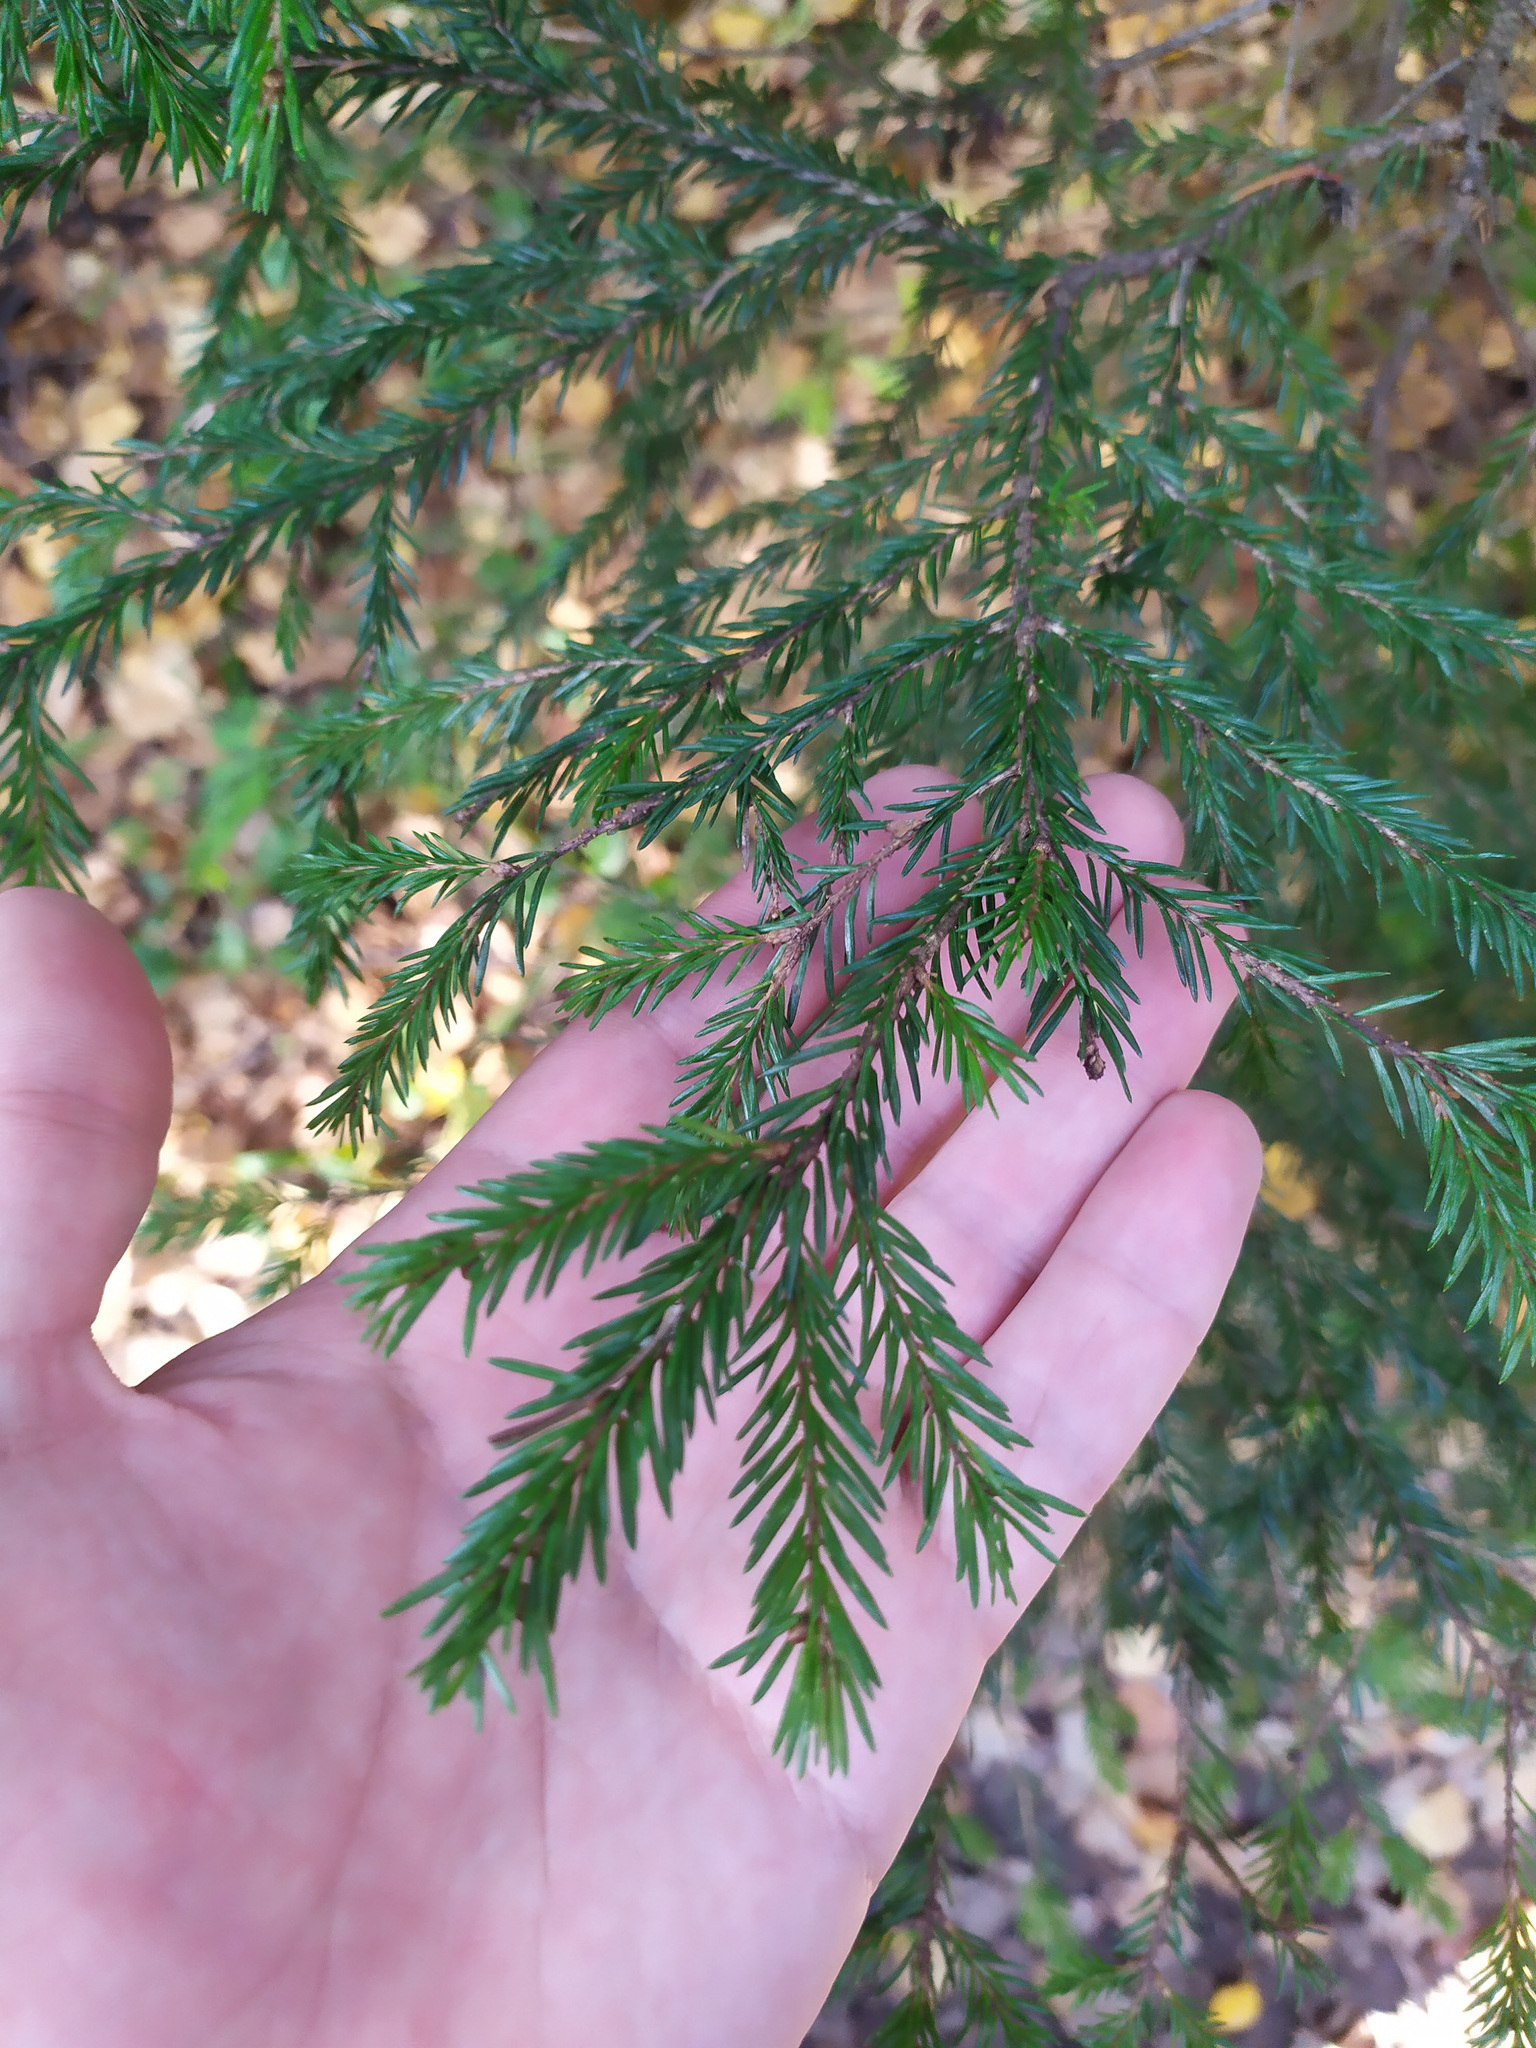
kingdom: Plantae
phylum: Tracheophyta
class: Pinopsida
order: Pinales
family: Pinaceae
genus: Picea
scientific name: Picea
